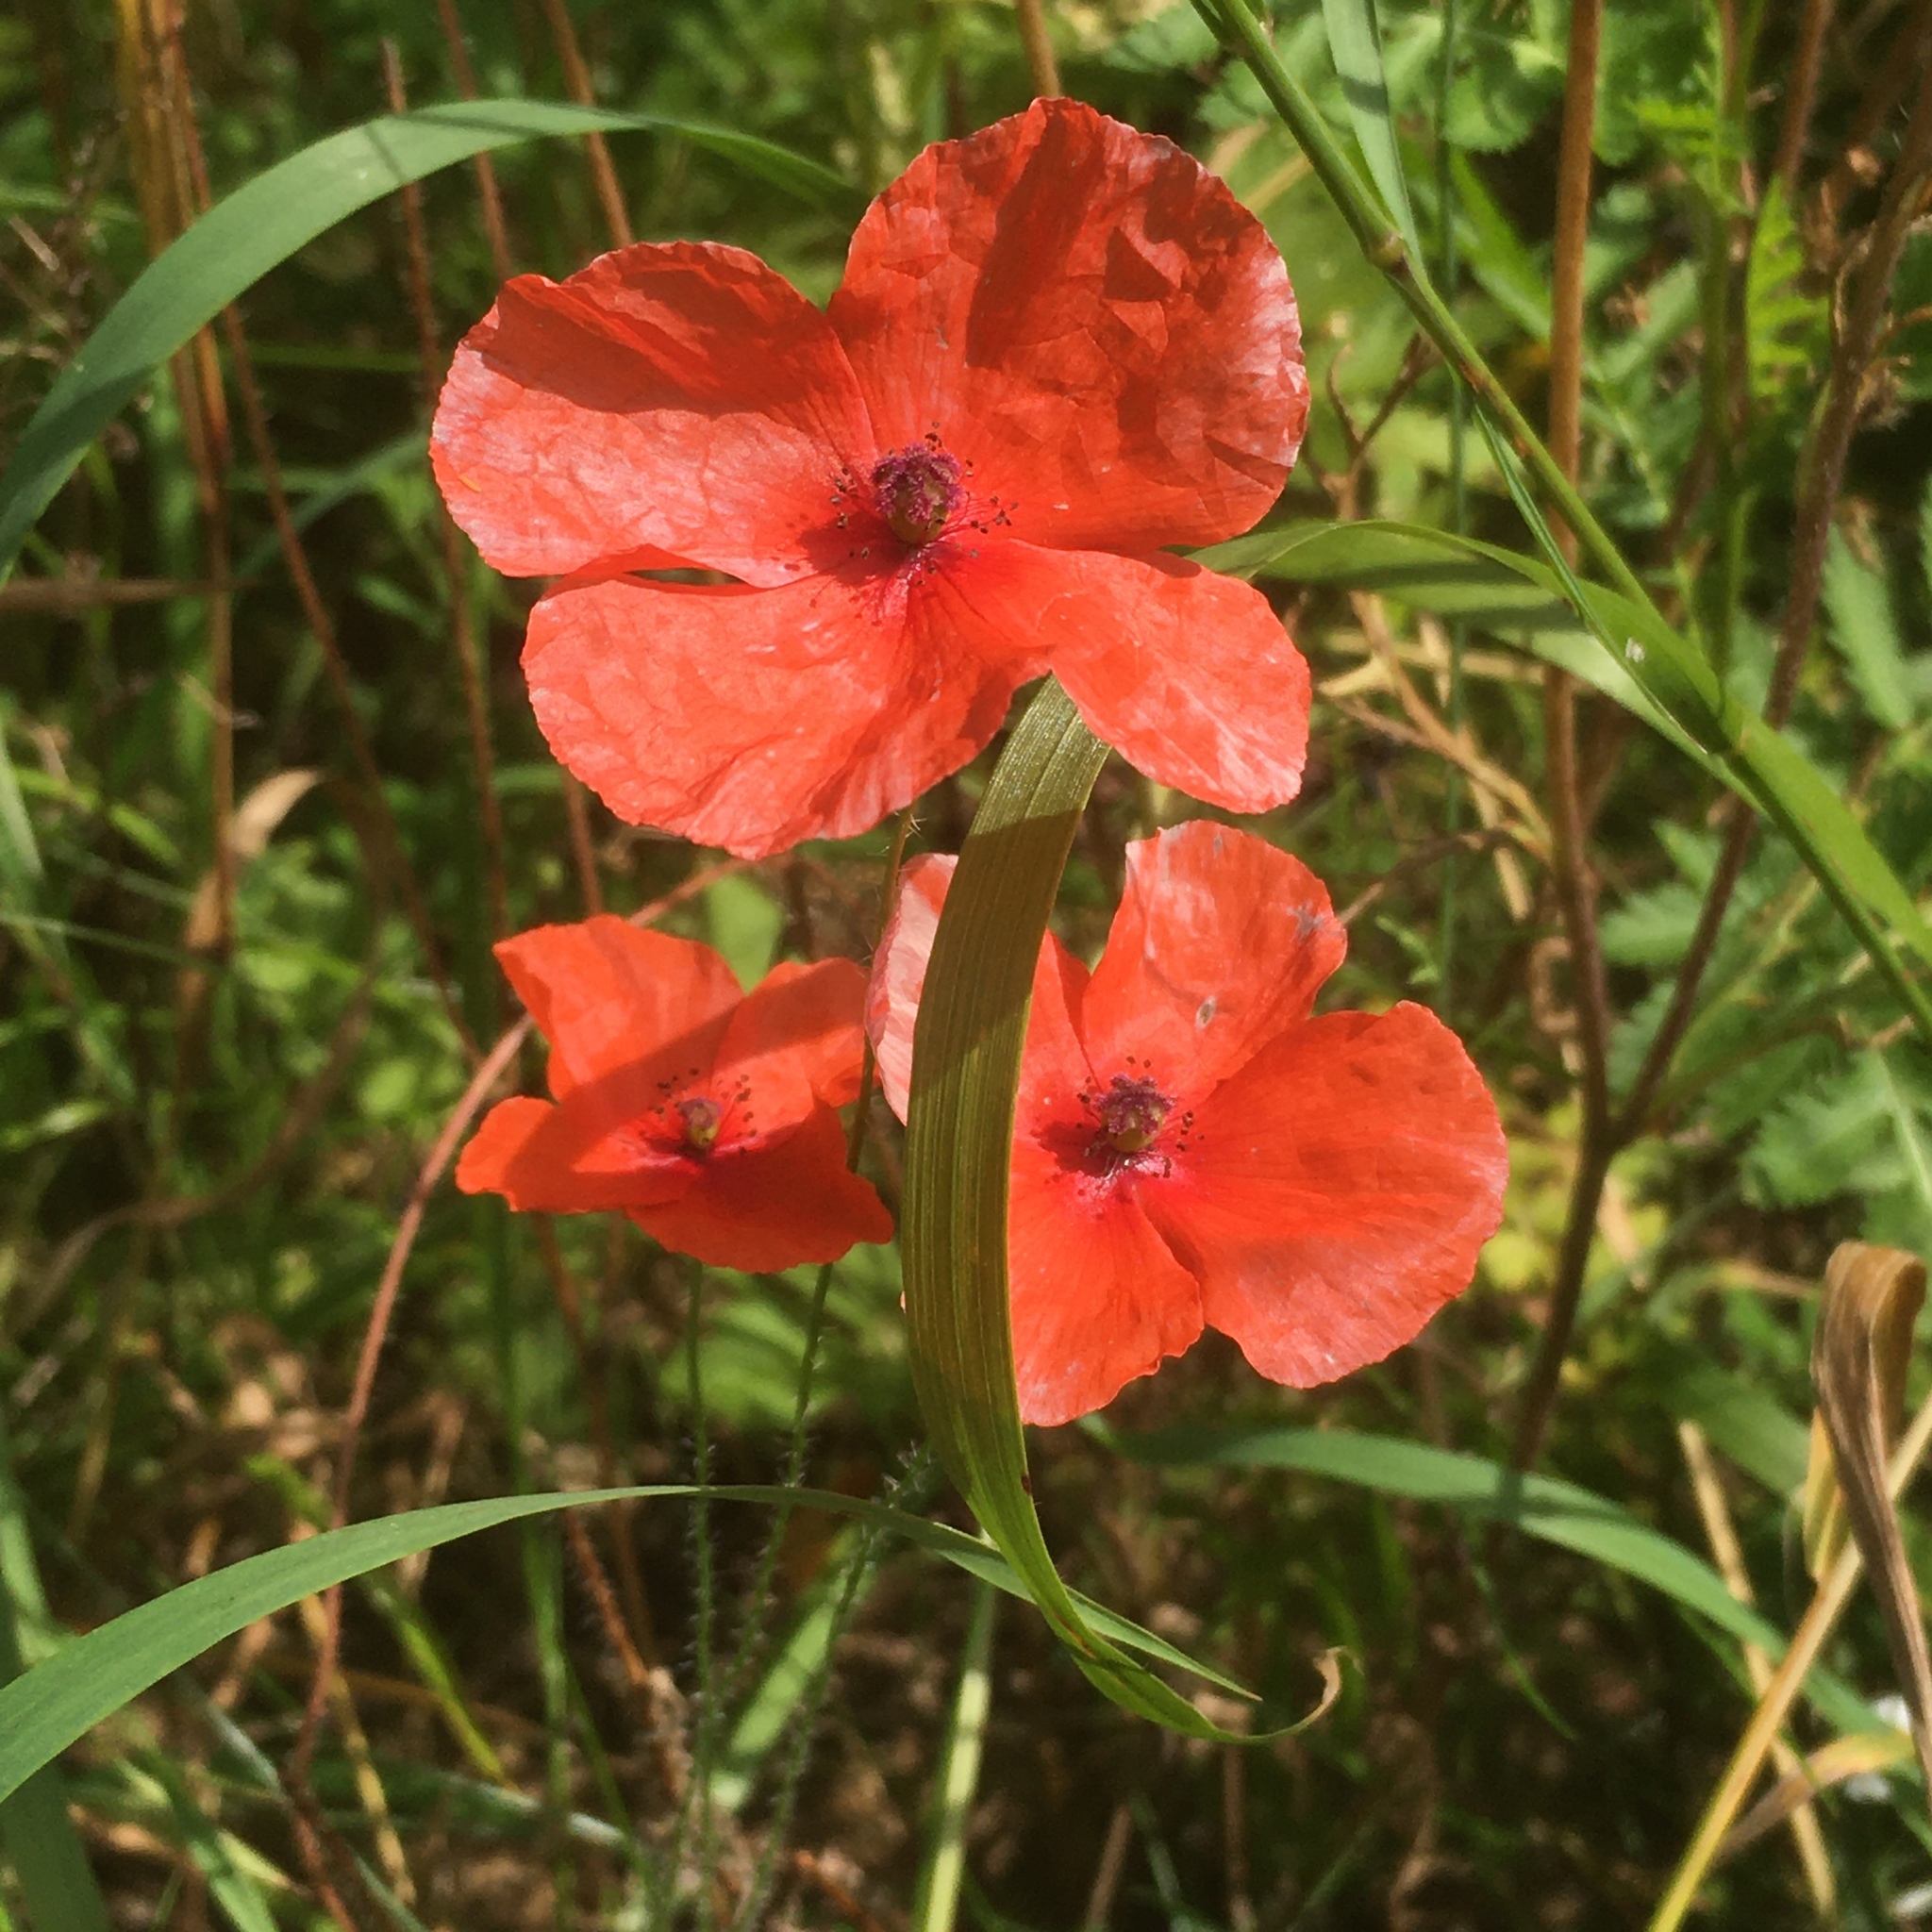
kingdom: Plantae
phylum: Tracheophyta
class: Magnoliopsida
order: Ranunculales
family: Papaveraceae
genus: Papaver
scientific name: Papaver rhoeas
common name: Corn poppy
